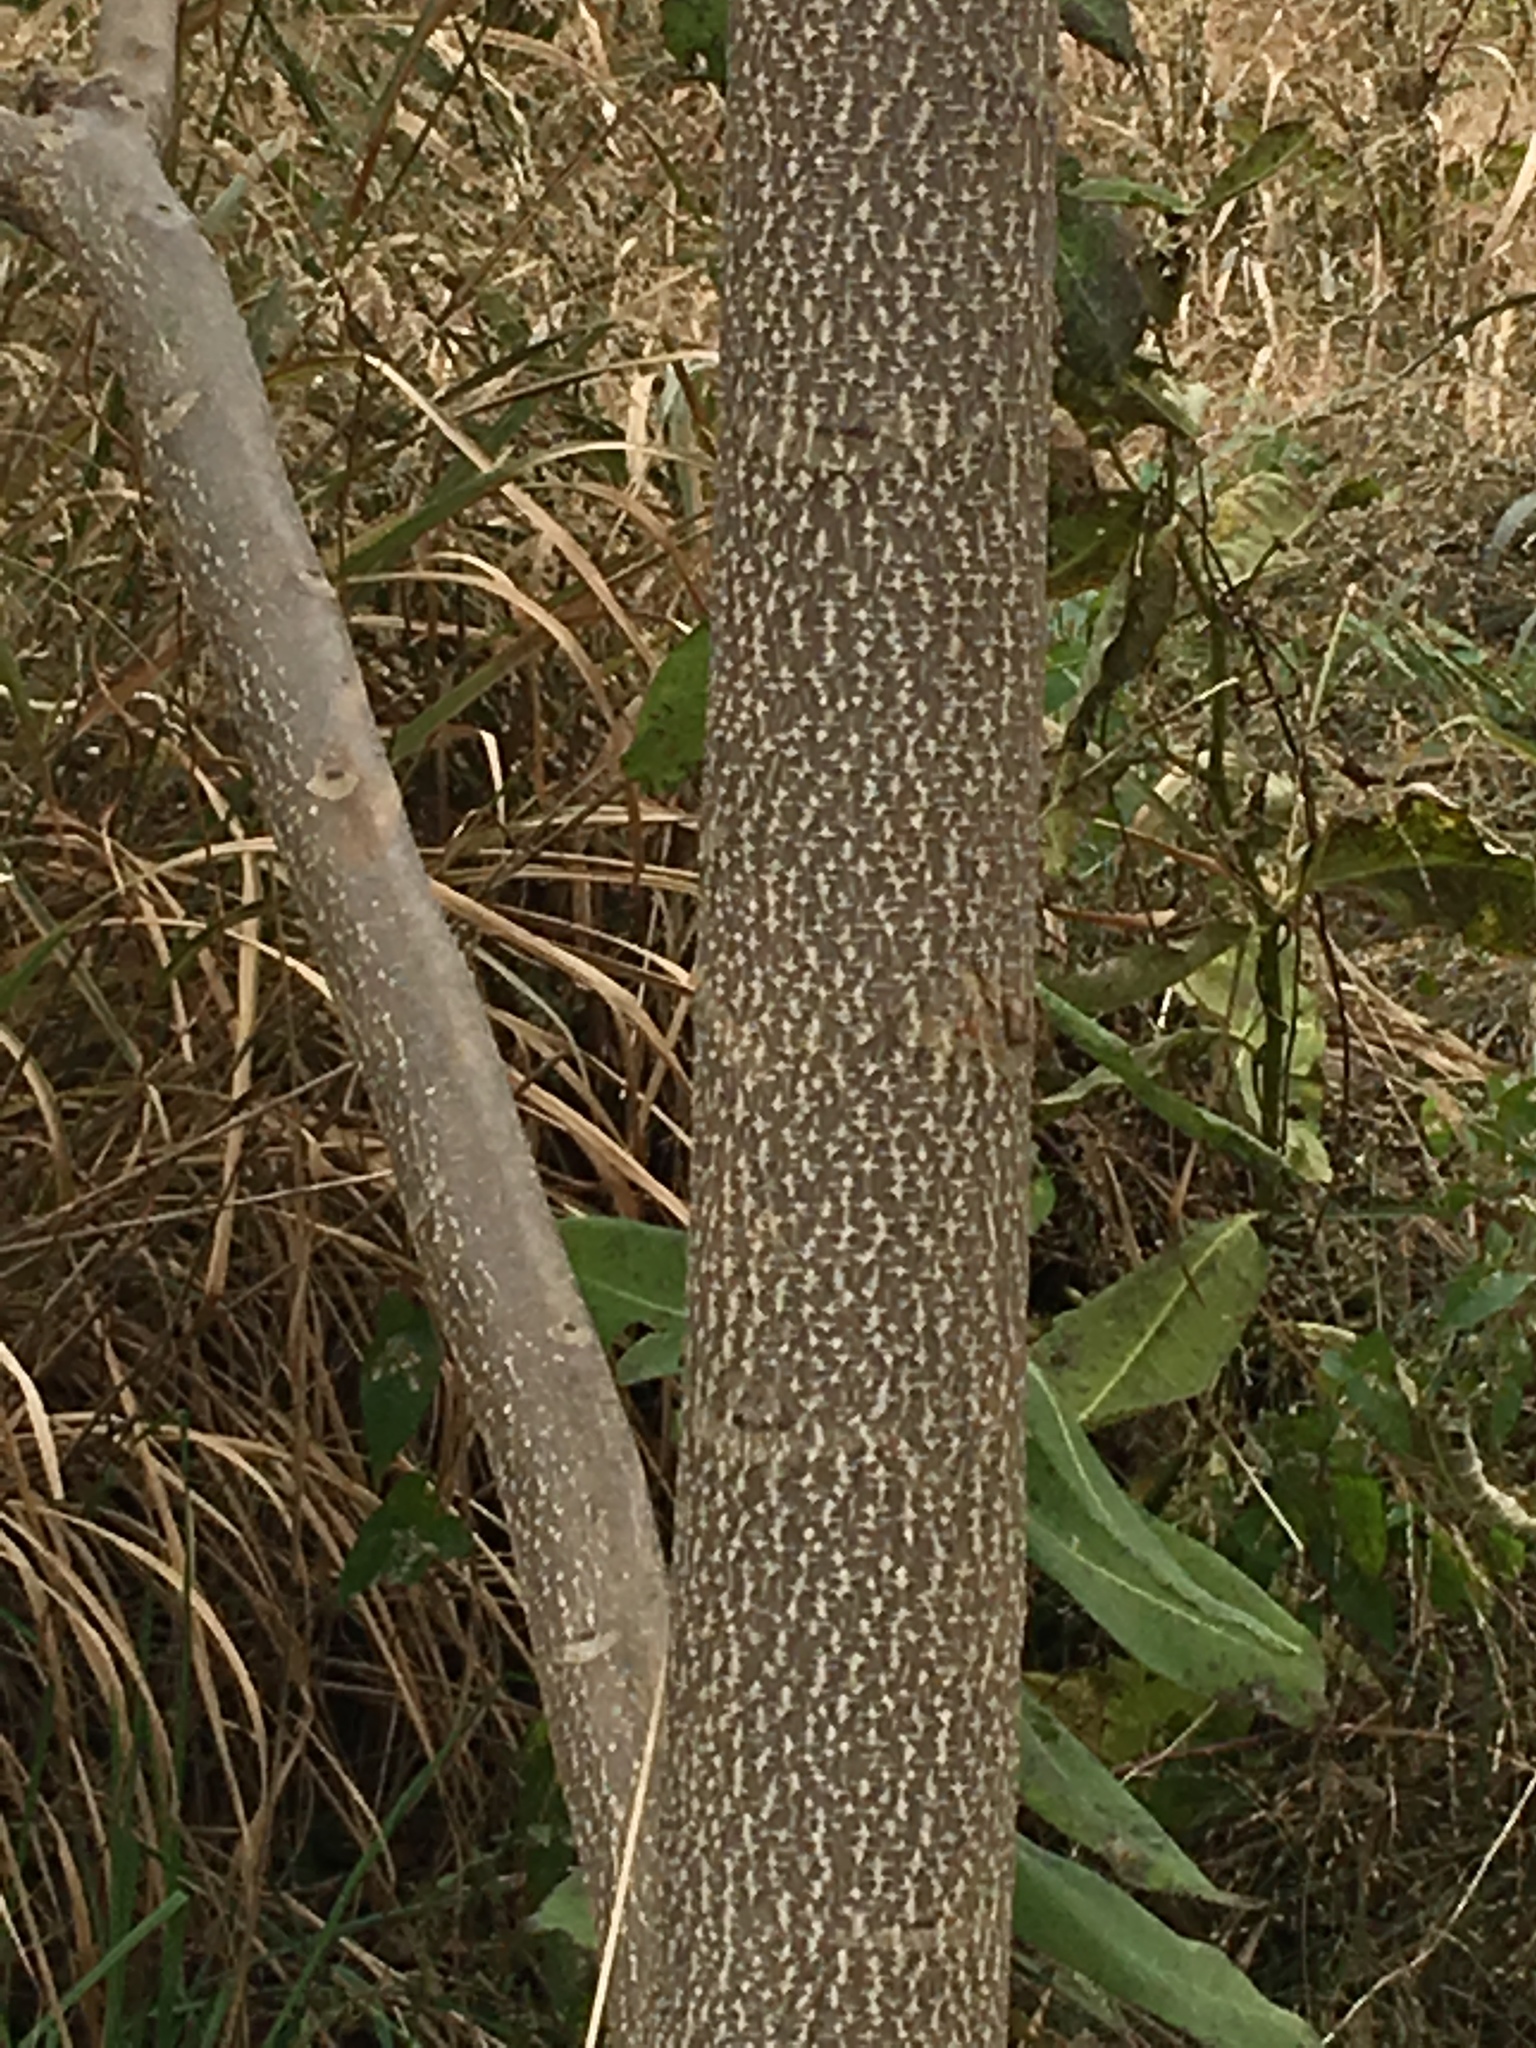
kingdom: Plantae
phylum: Tracheophyta
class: Magnoliopsida
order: Sapindales
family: Simaroubaceae
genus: Ailanthus
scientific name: Ailanthus altissima
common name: Tree-of-heaven
